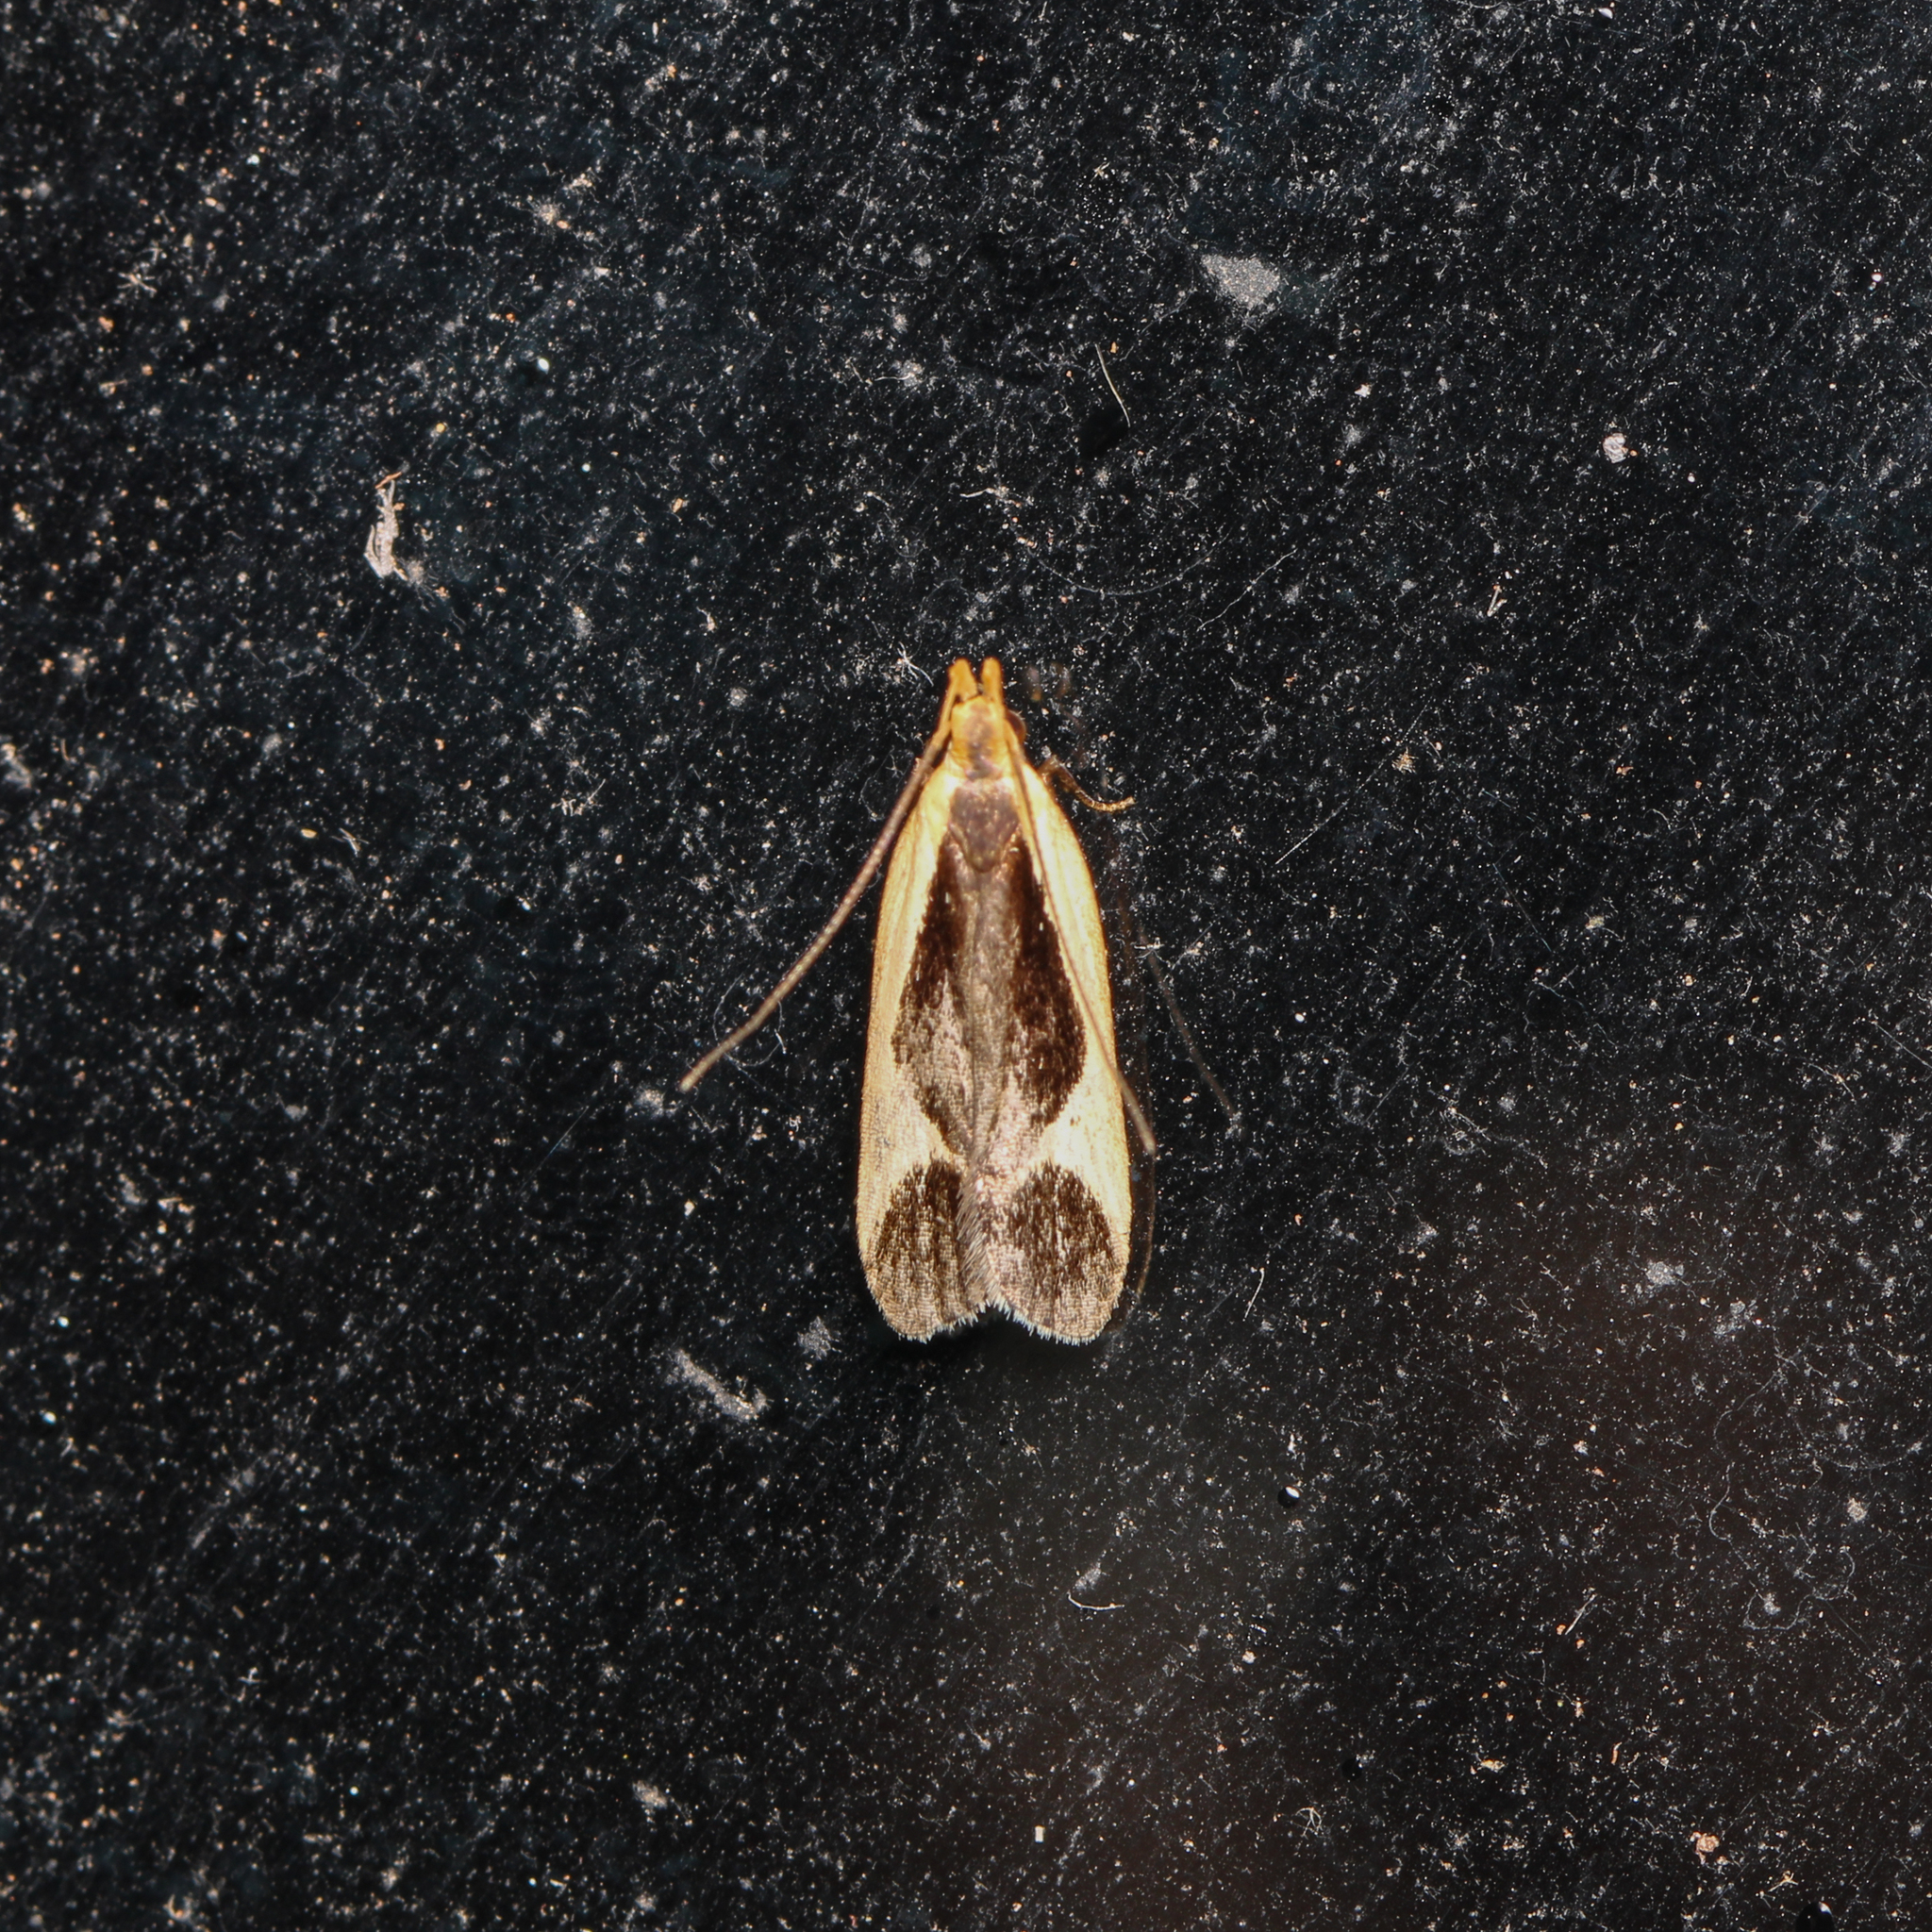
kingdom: Animalia
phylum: Arthropoda
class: Insecta
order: Lepidoptera
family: Gelechiidae
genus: Dichomeris
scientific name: Dichomeris flavocostella
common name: Cream-edged dichomeris moth
